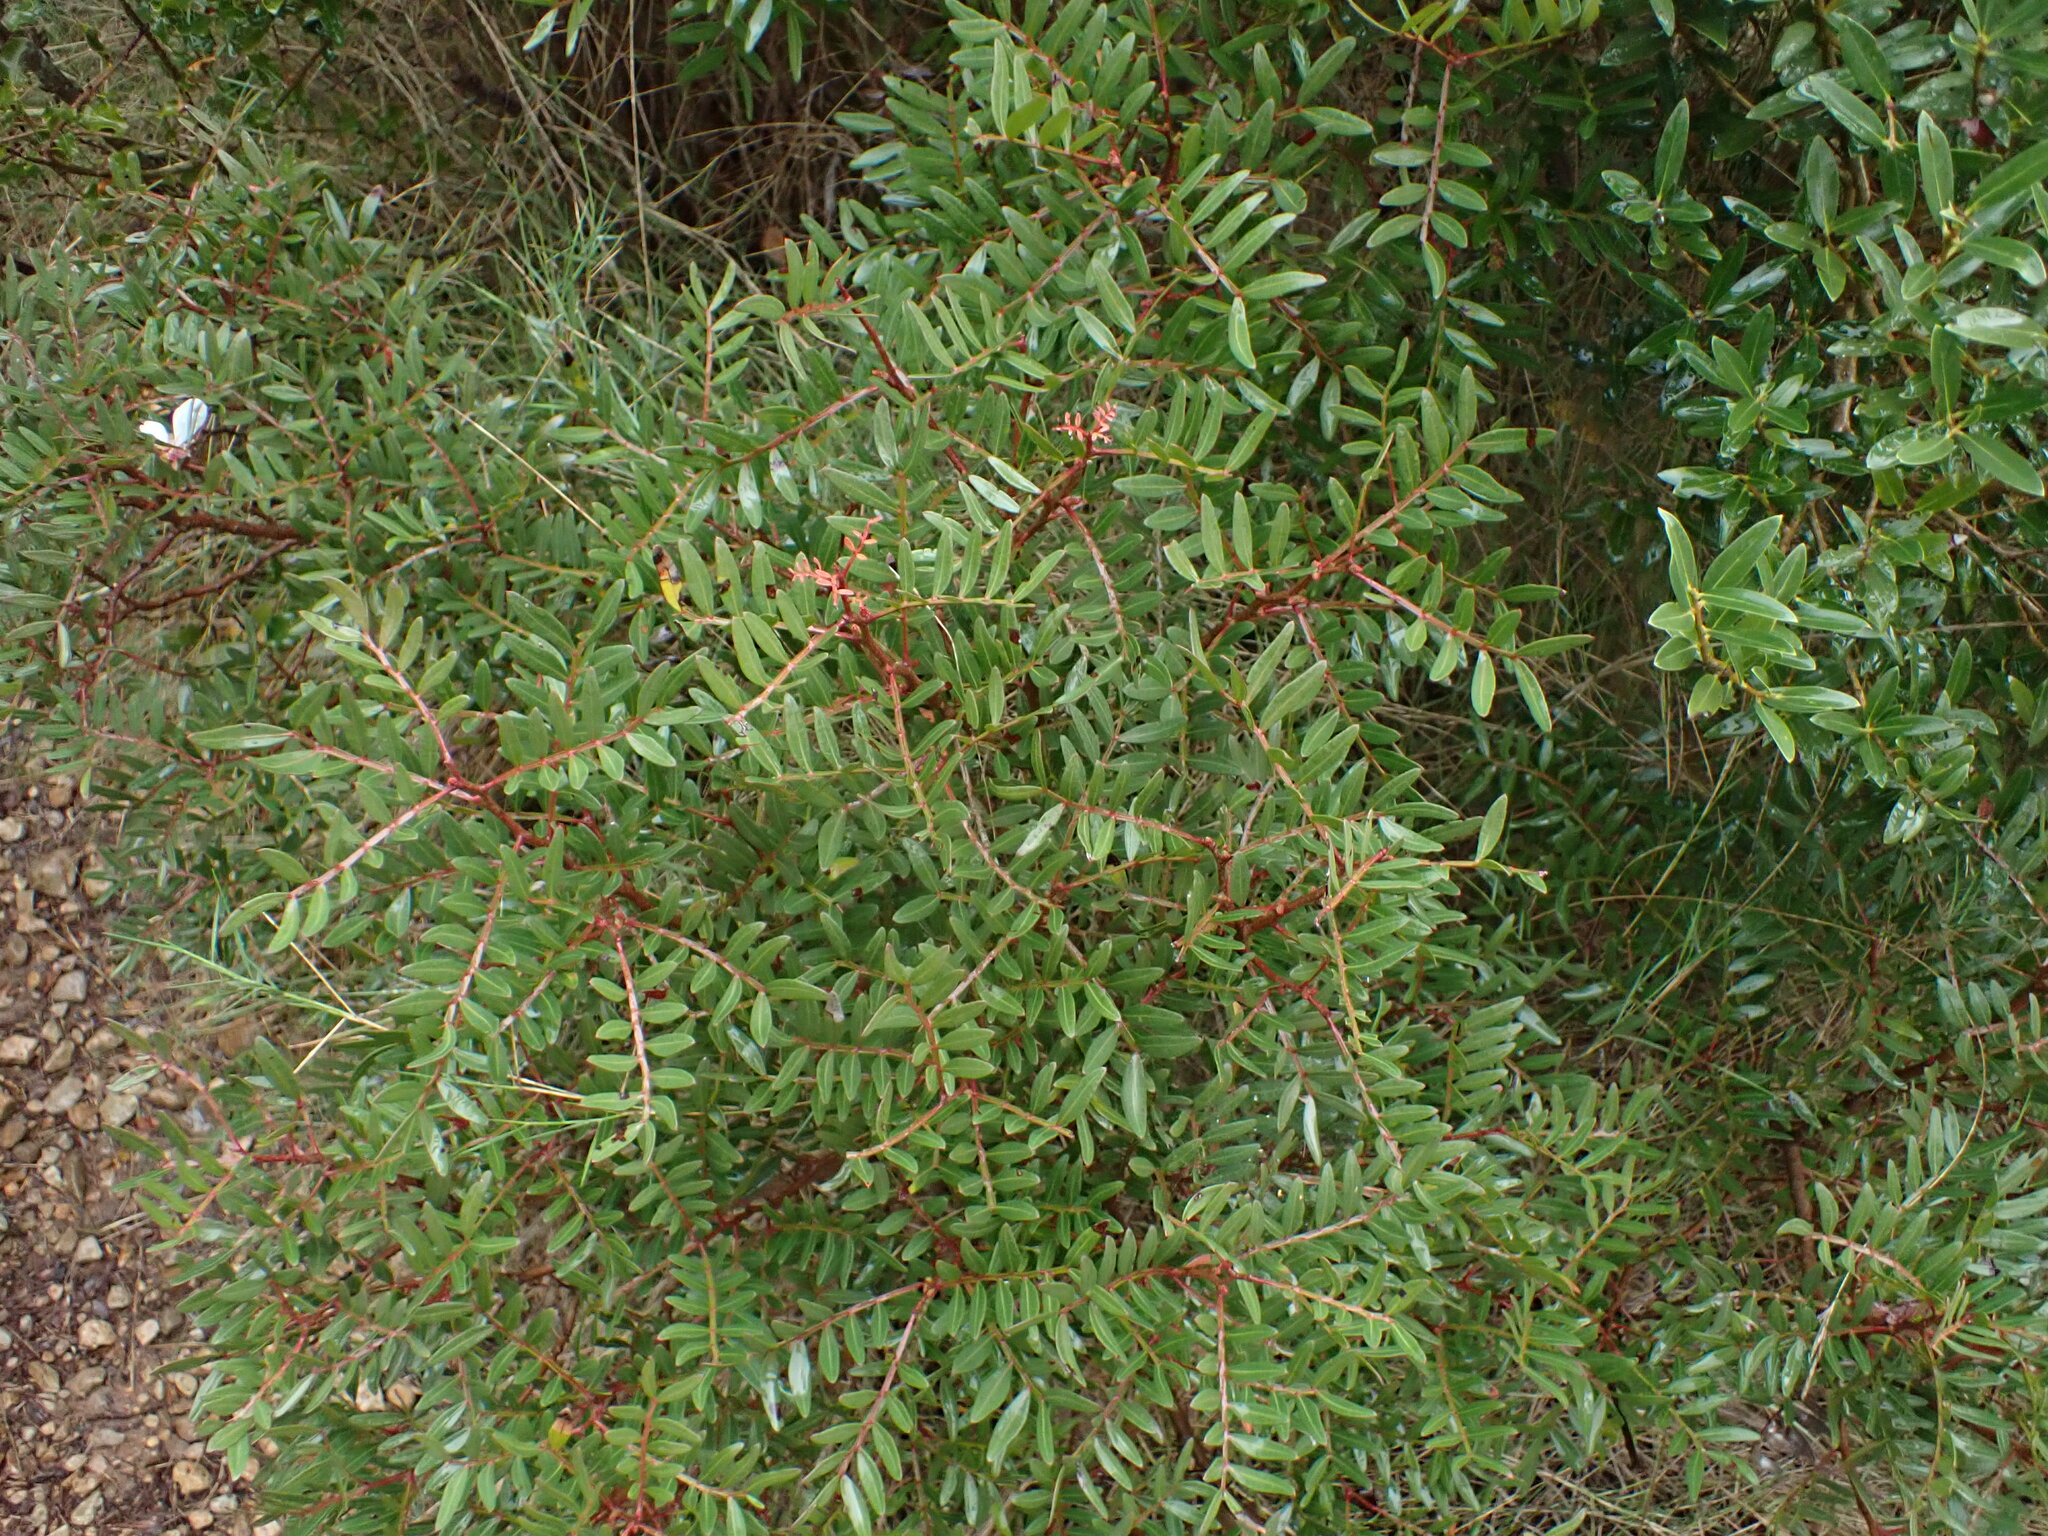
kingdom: Plantae
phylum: Tracheophyta
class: Magnoliopsida
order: Sapindales
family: Anacardiaceae
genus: Pistacia
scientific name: Pistacia lentiscus
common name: Lentisk
